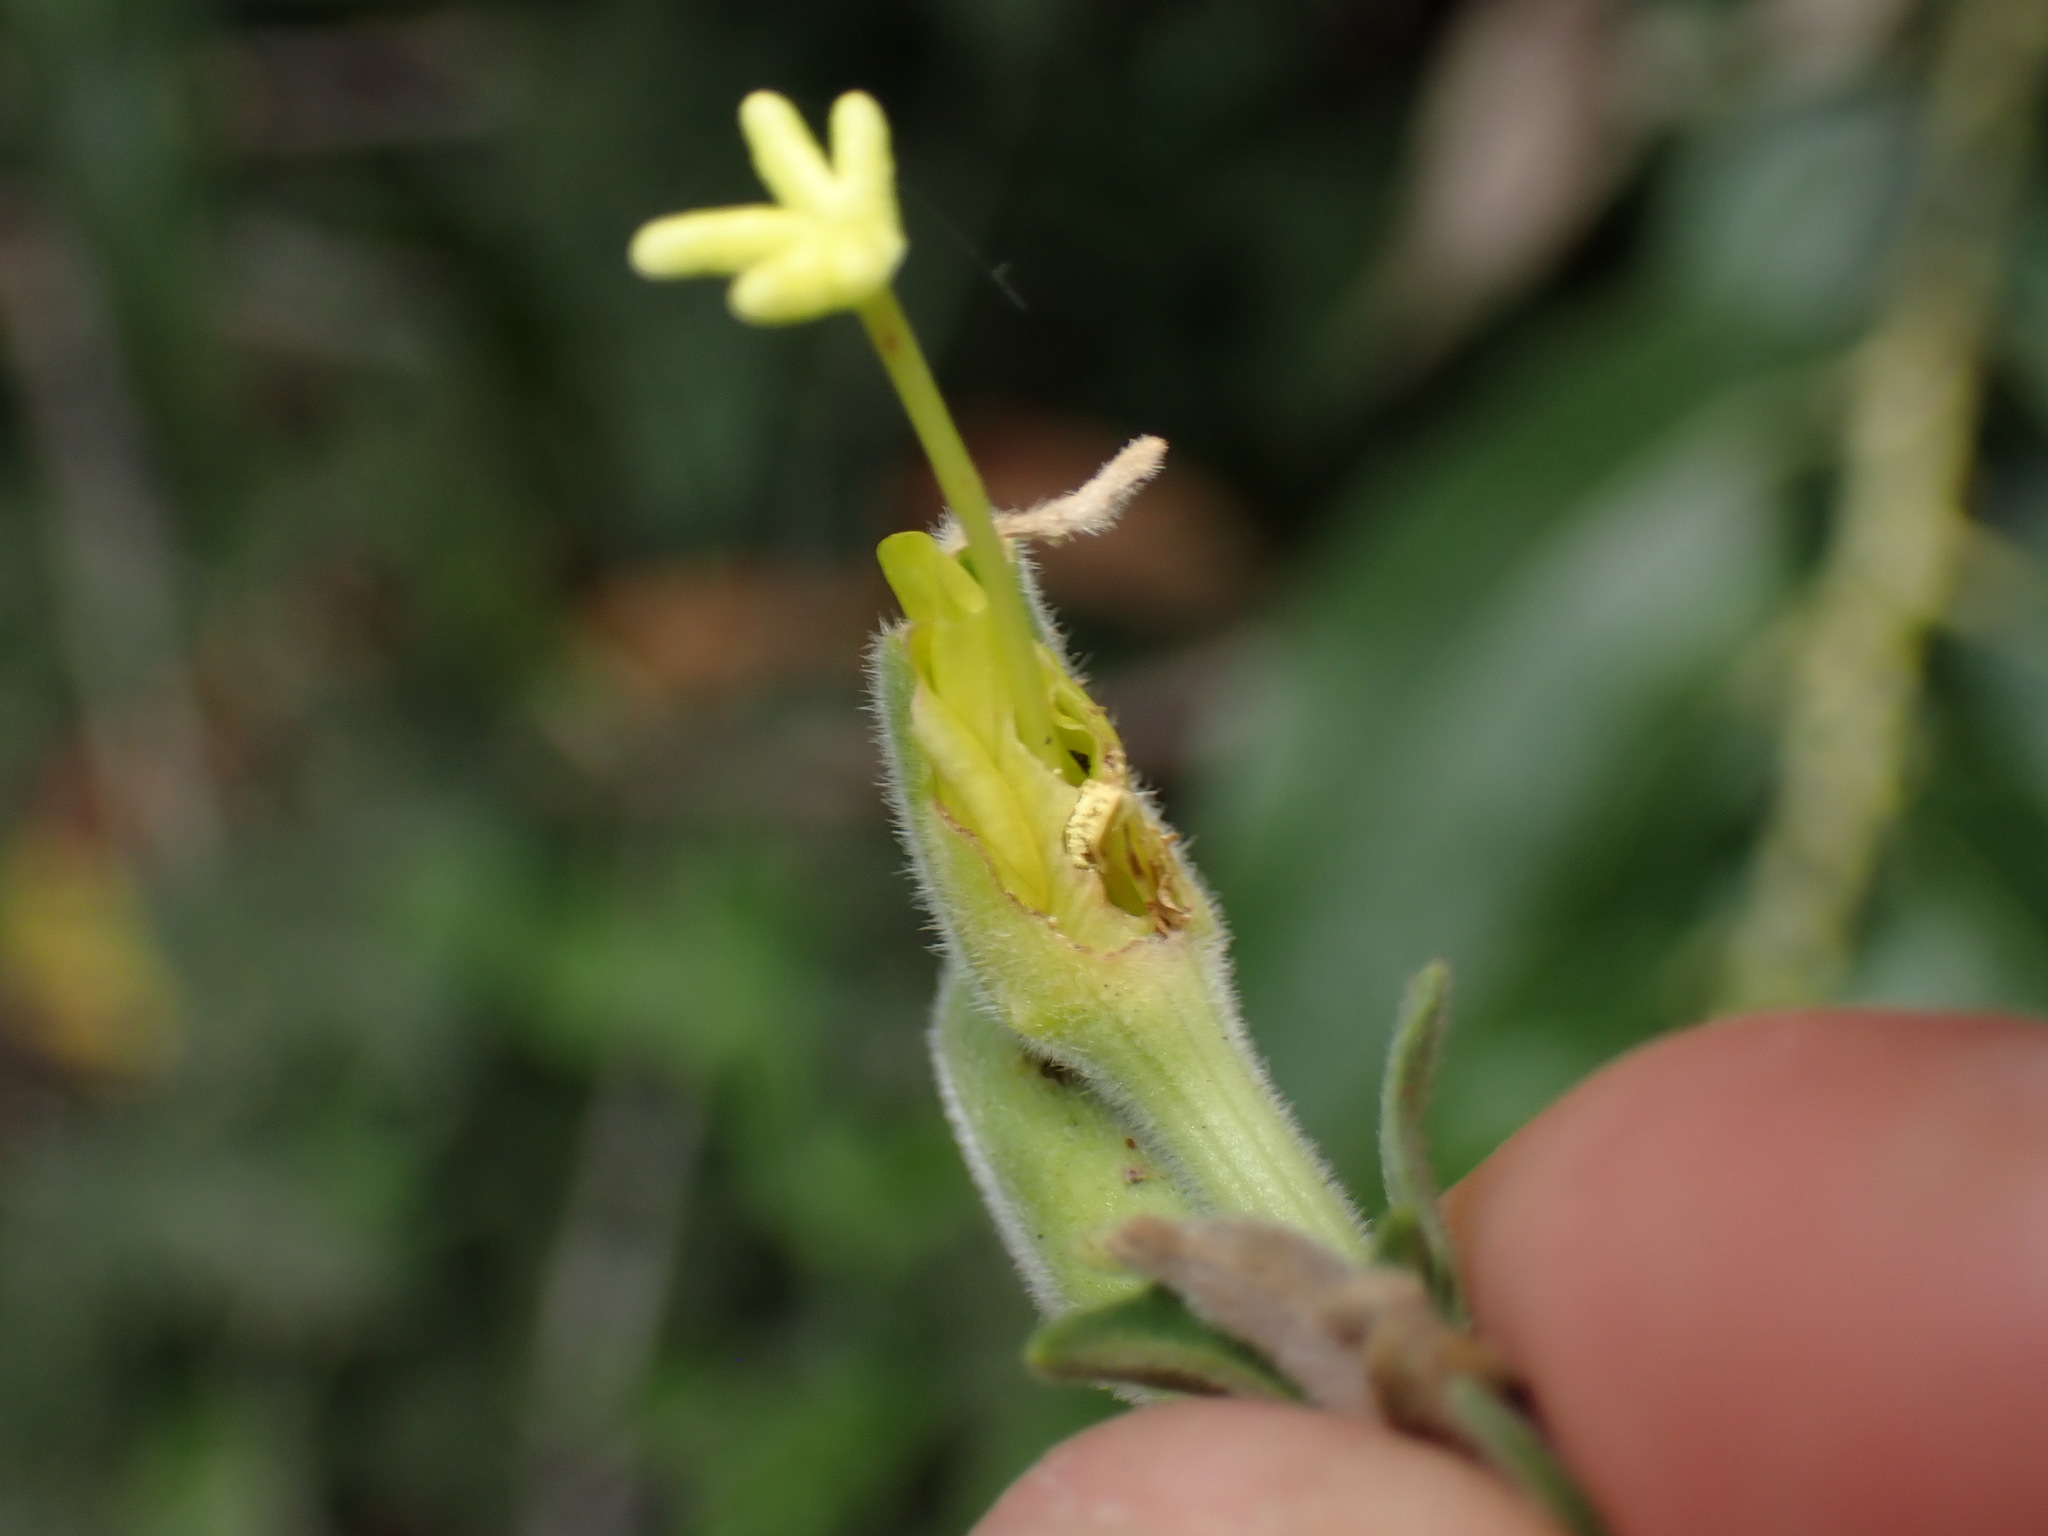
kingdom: Plantae
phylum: Tracheophyta
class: Magnoliopsida
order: Myrtales
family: Onagraceae
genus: Oenothera
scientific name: Oenothera elata
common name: Hooker's evening-primrose
